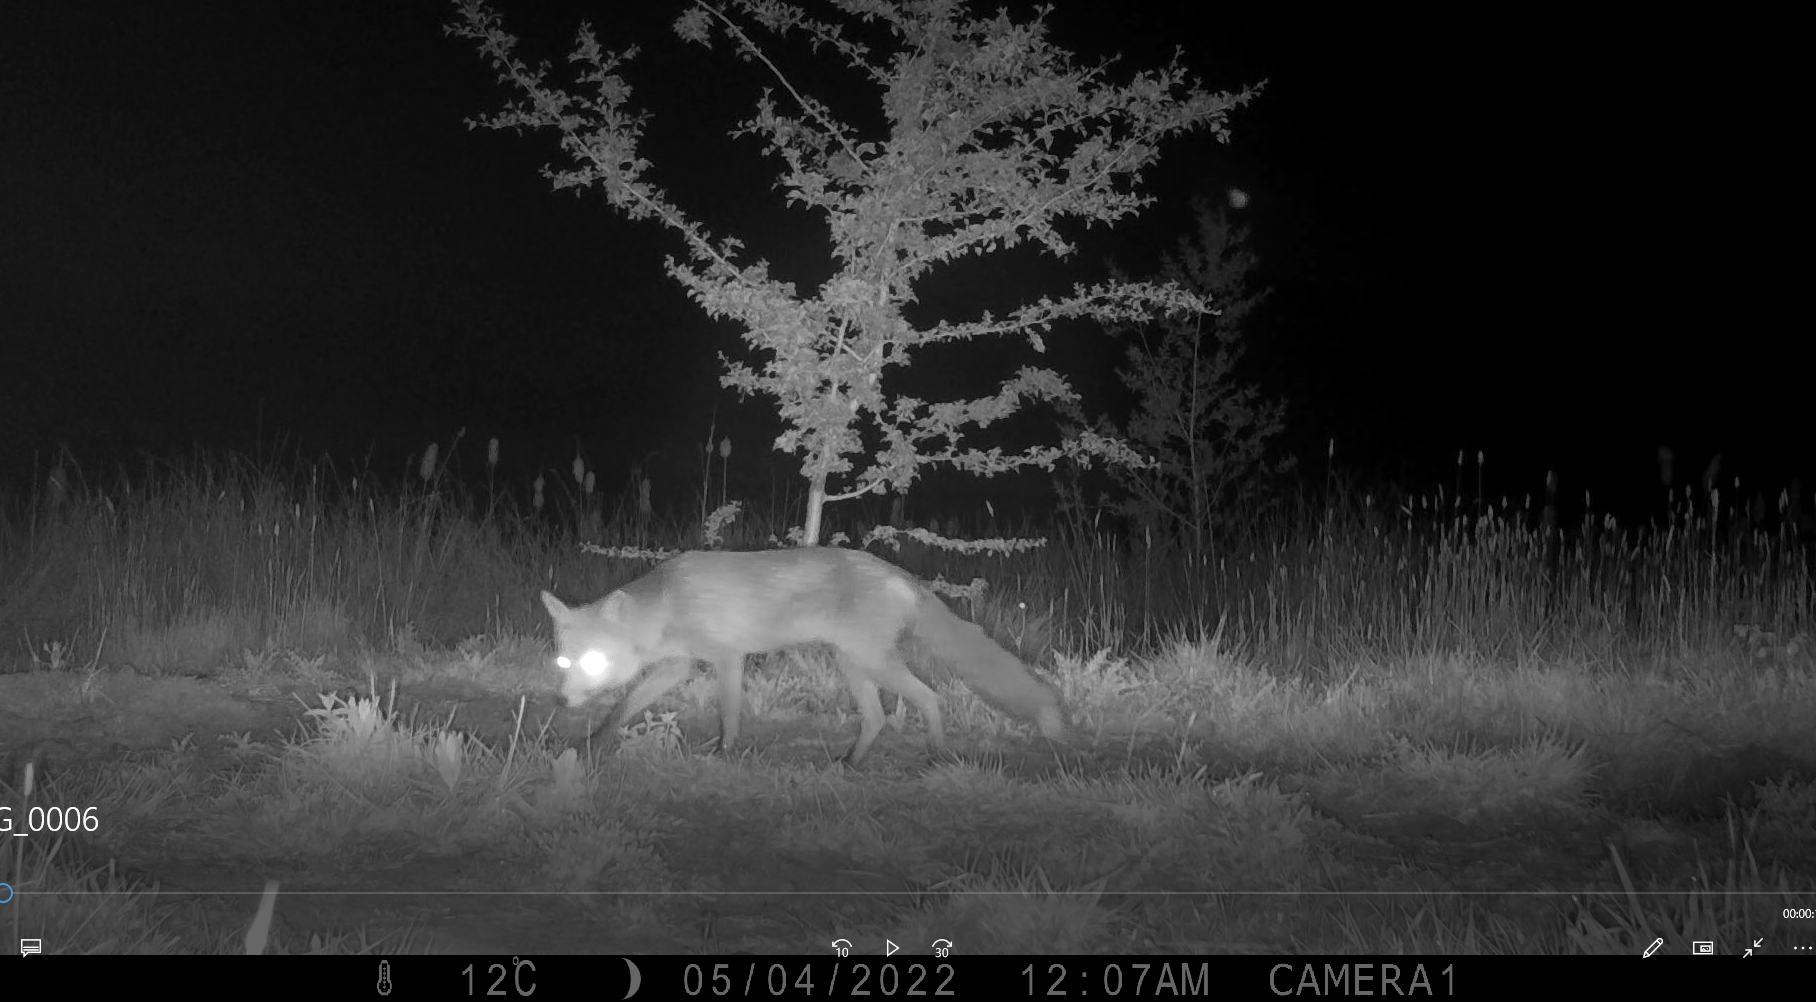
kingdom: Animalia
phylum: Chordata
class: Mammalia
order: Carnivora
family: Canidae
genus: Vulpes
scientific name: Vulpes vulpes
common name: Red fox
